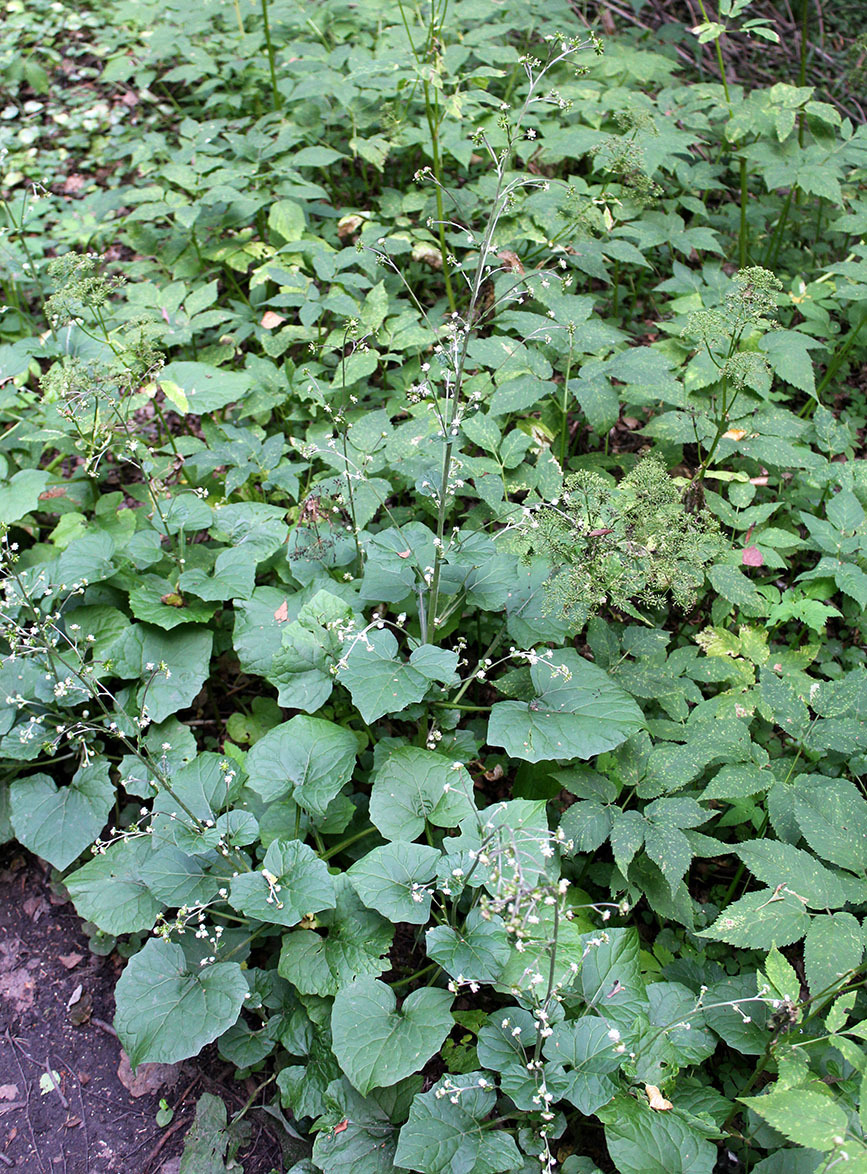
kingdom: Plantae
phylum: Tracheophyta
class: Magnoliopsida
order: Asterales
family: Asteraceae
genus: Adenocaulon
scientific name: Adenocaulon himalaicum
